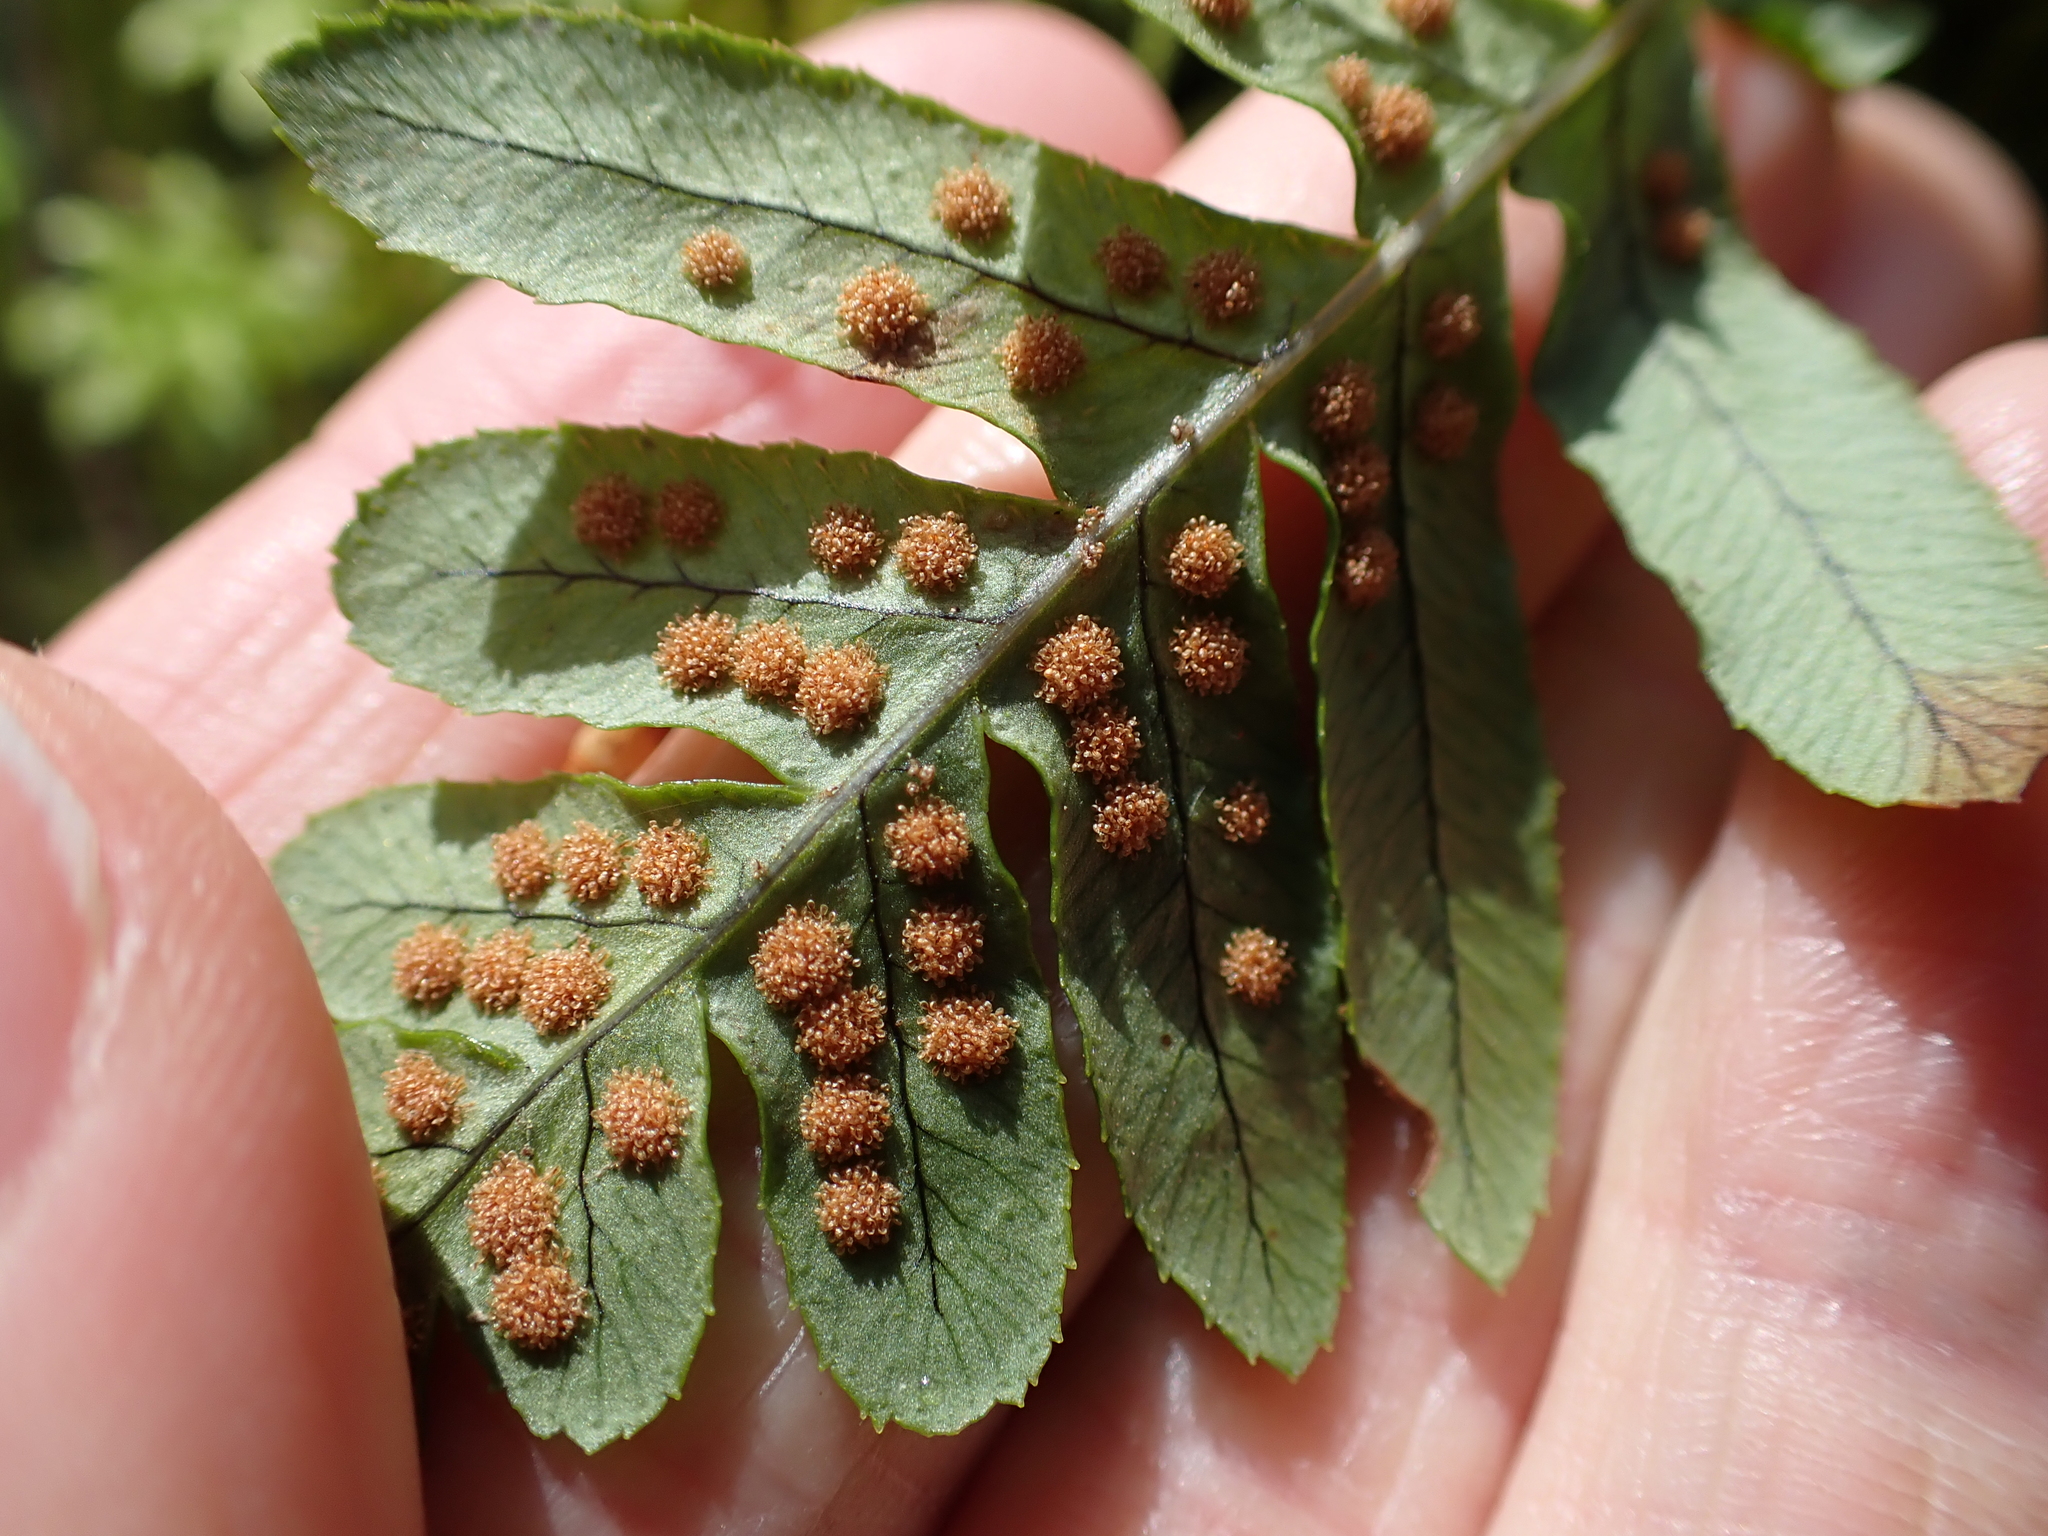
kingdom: Plantae
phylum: Tracheophyta
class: Polypodiopsida
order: Polypodiales
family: Polypodiaceae
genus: Polypodium
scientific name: Polypodium glycyrrhiza
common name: Licorice fern
